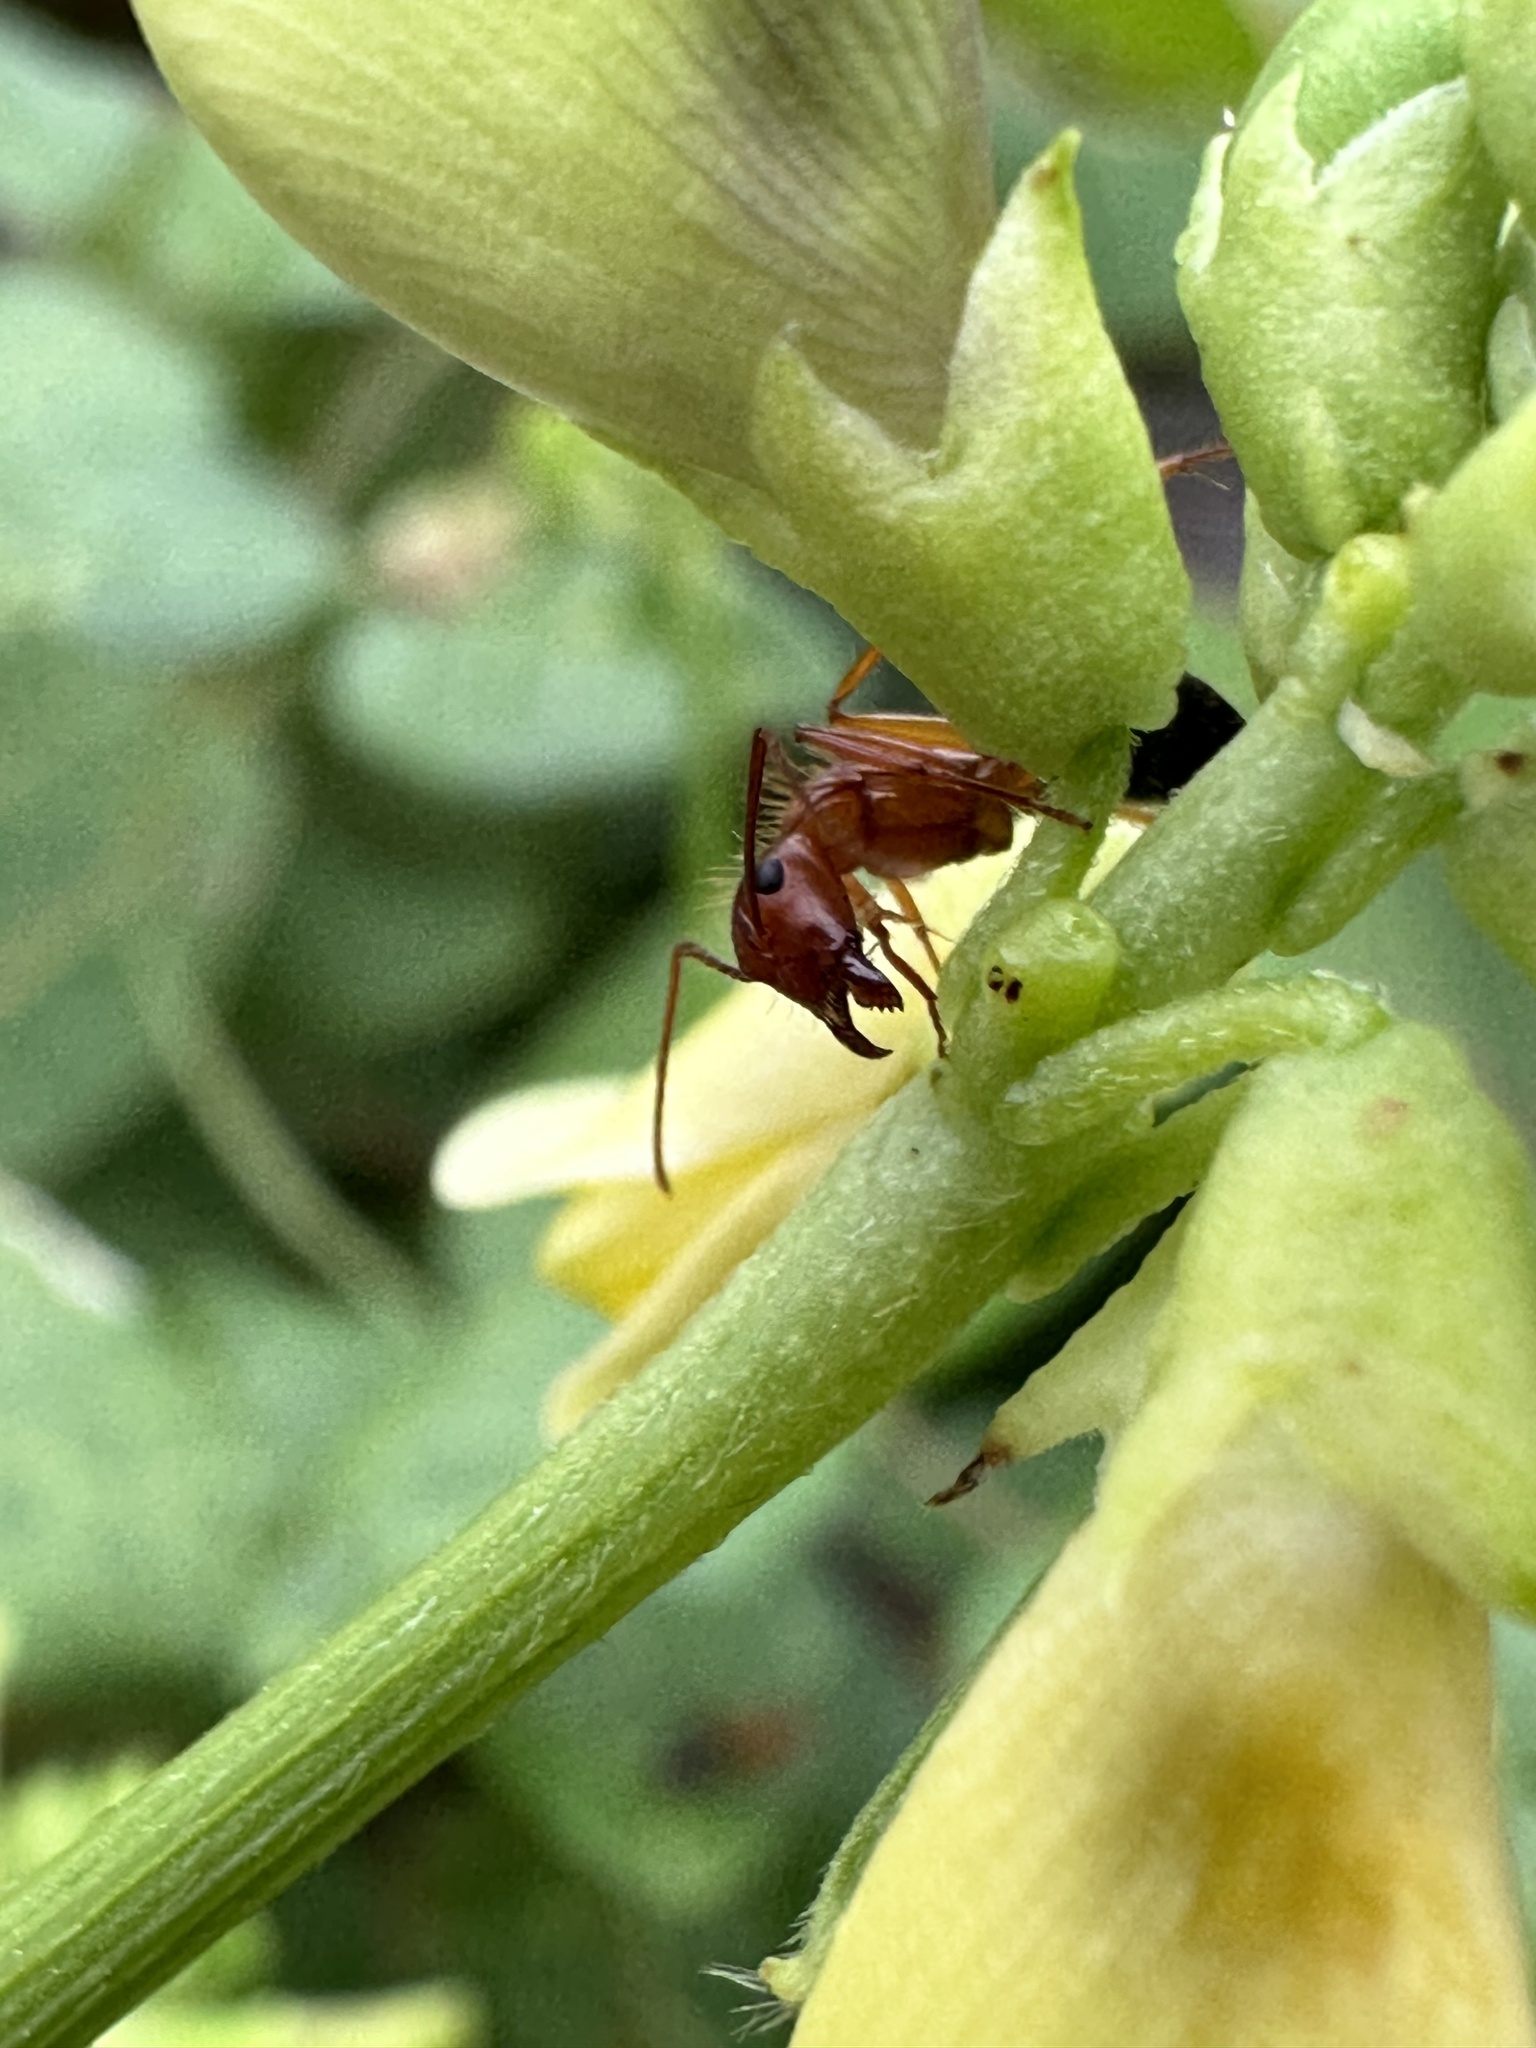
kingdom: Animalia
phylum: Arthropoda
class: Insecta
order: Hymenoptera
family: Formicidae
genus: Camponotus
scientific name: Camponotus floridanus
